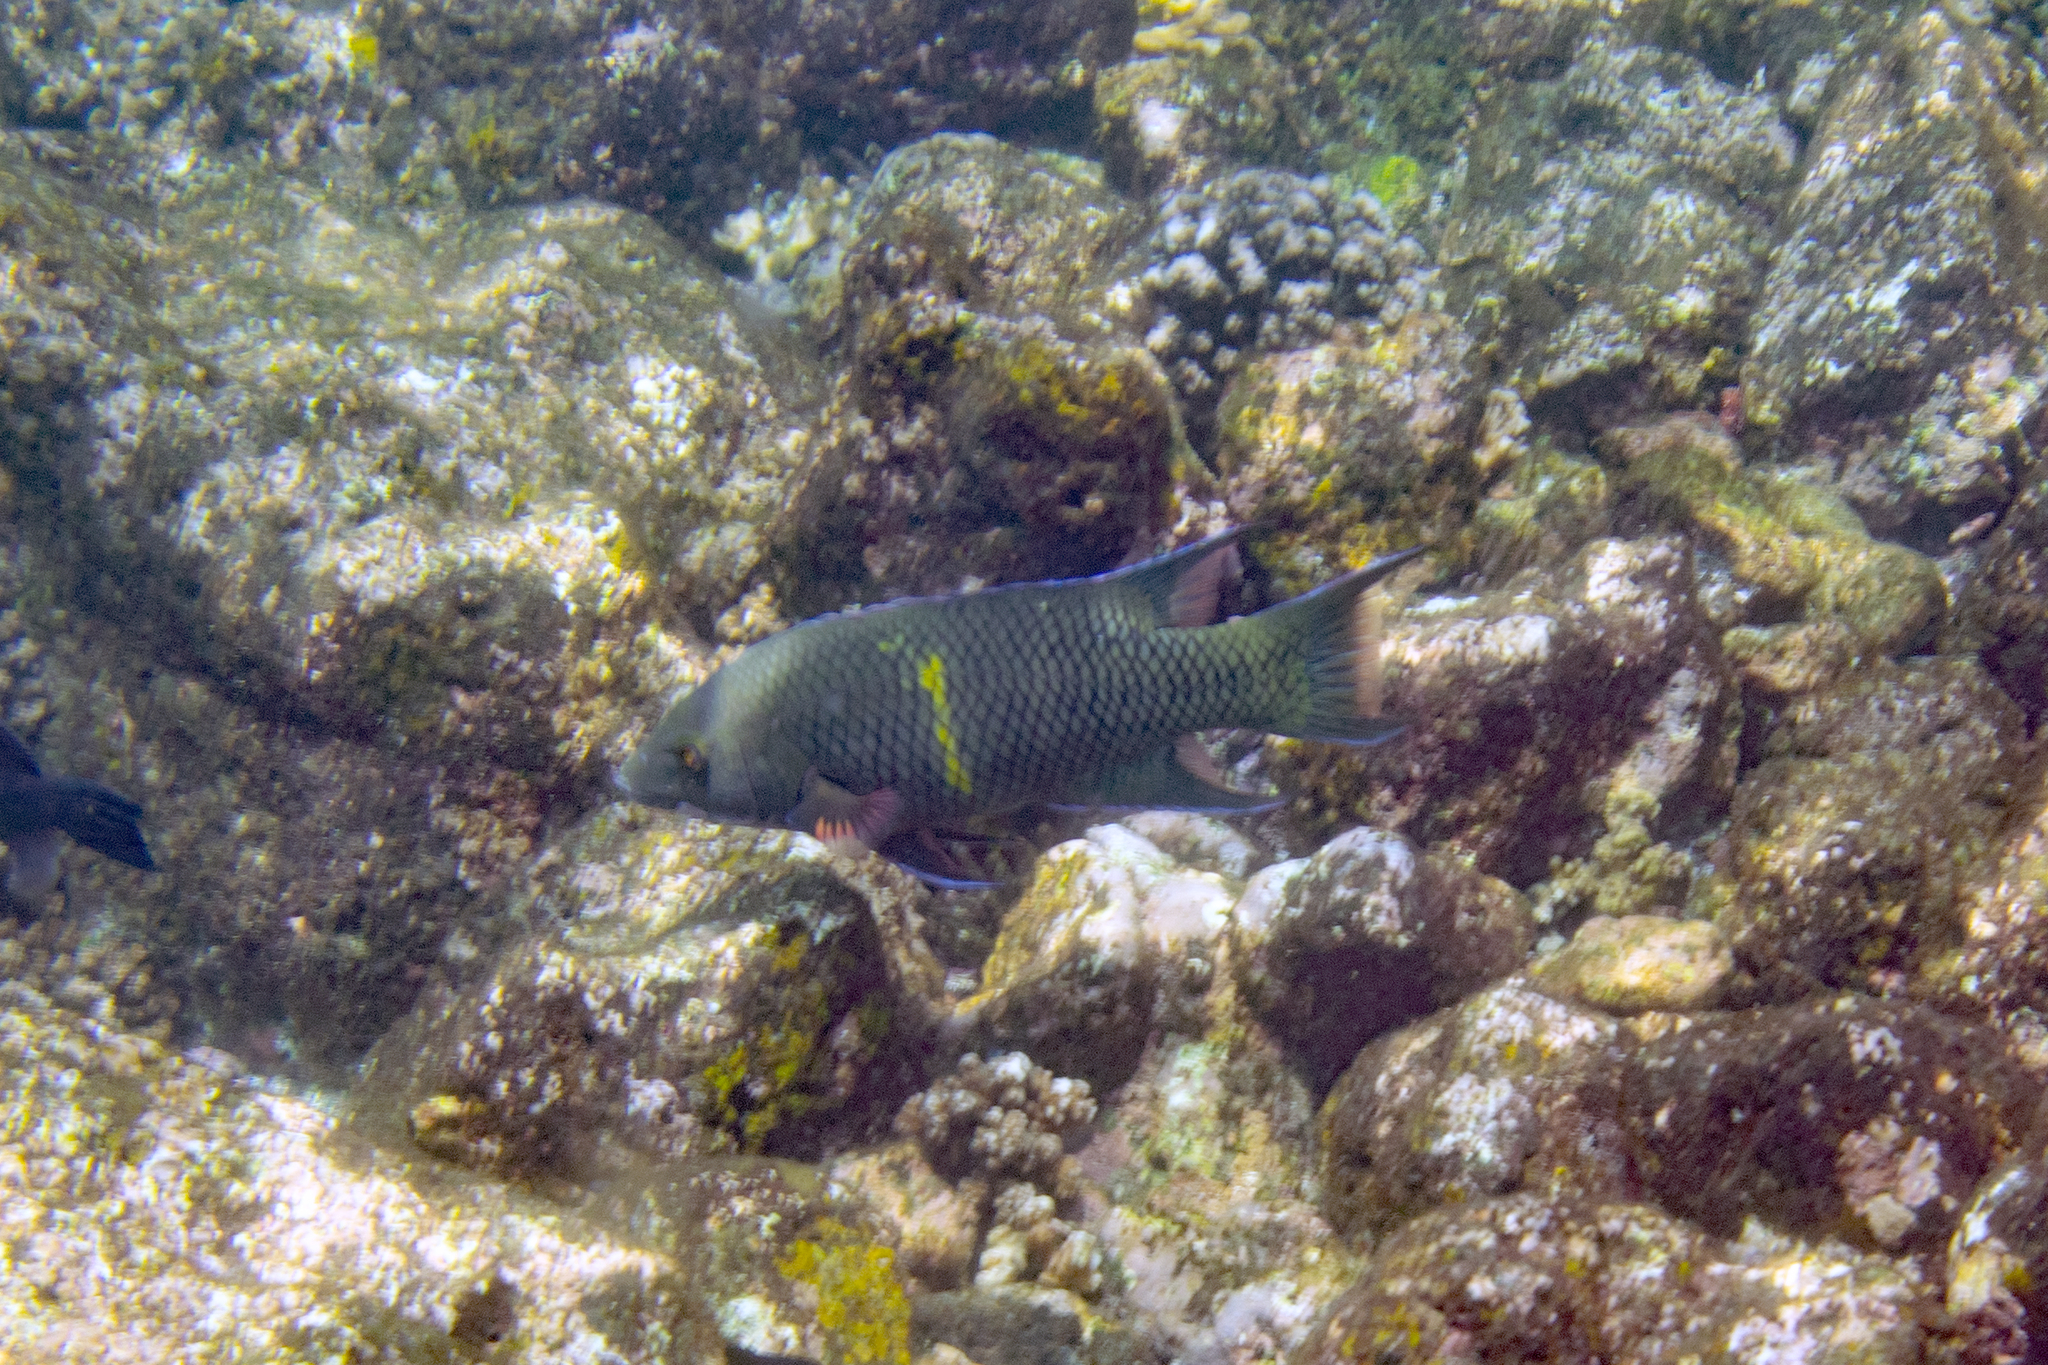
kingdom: Animalia
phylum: Chordata
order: Perciformes
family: Labridae
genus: Bodianus
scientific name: Bodianus diplotaenia
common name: Mexican hogfish
